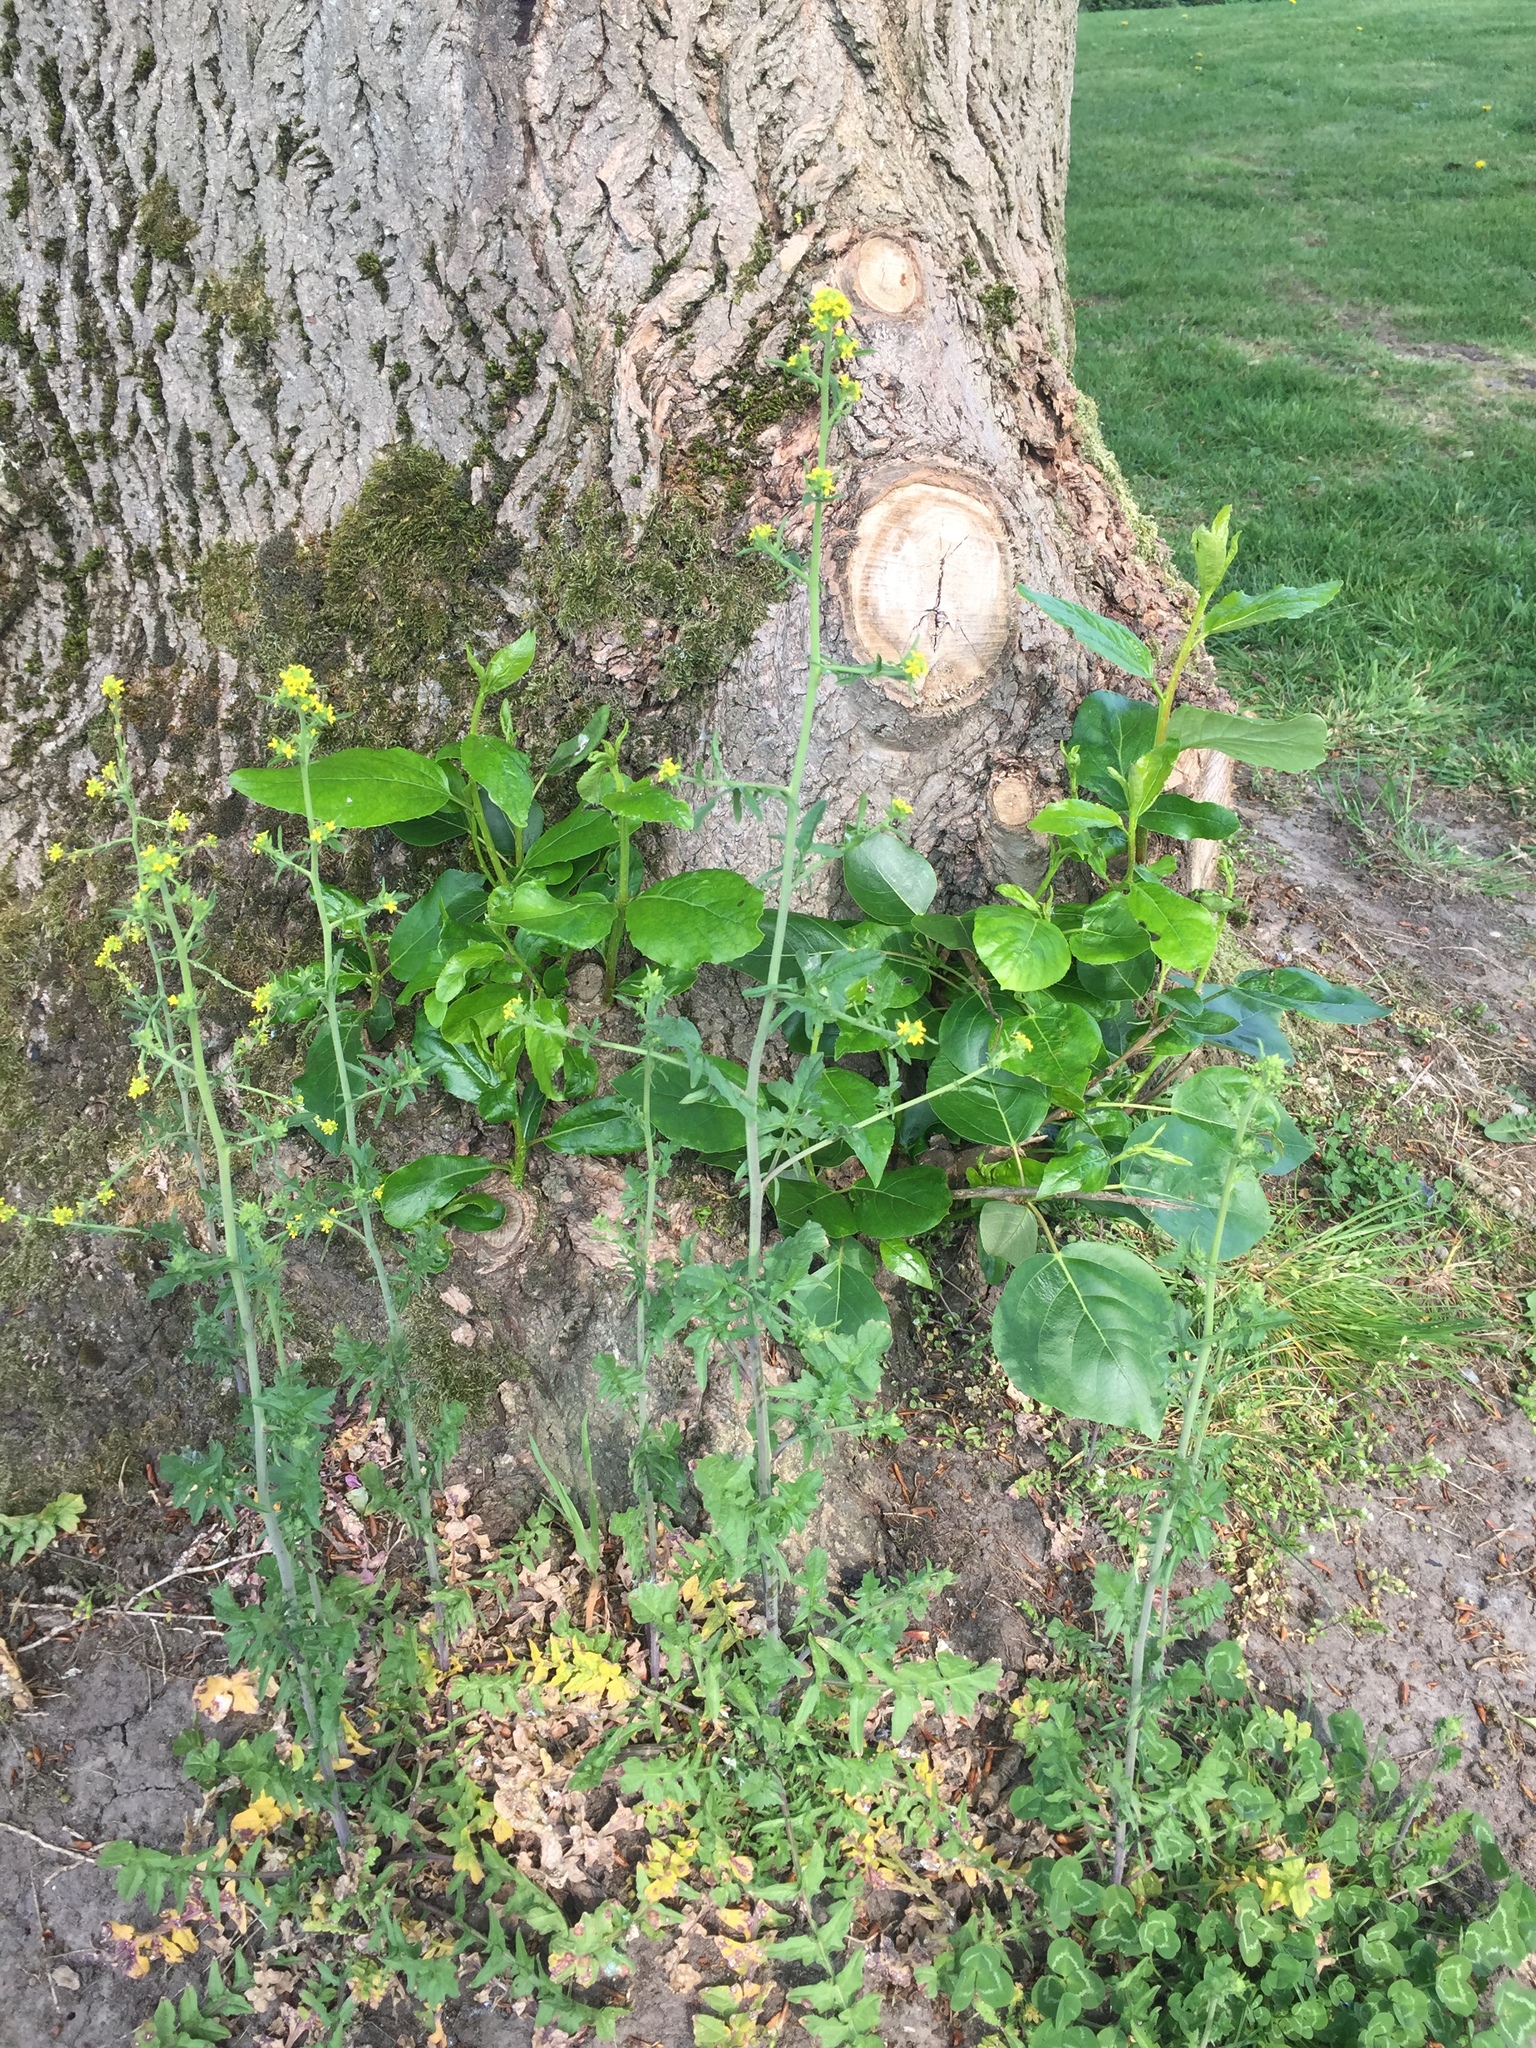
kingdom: Plantae
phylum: Tracheophyta
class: Magnoliopsida
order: Brassicales
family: Brassicaceae
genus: Sisymbrium
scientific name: Sisymbrium officinale
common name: Hedge mustard
